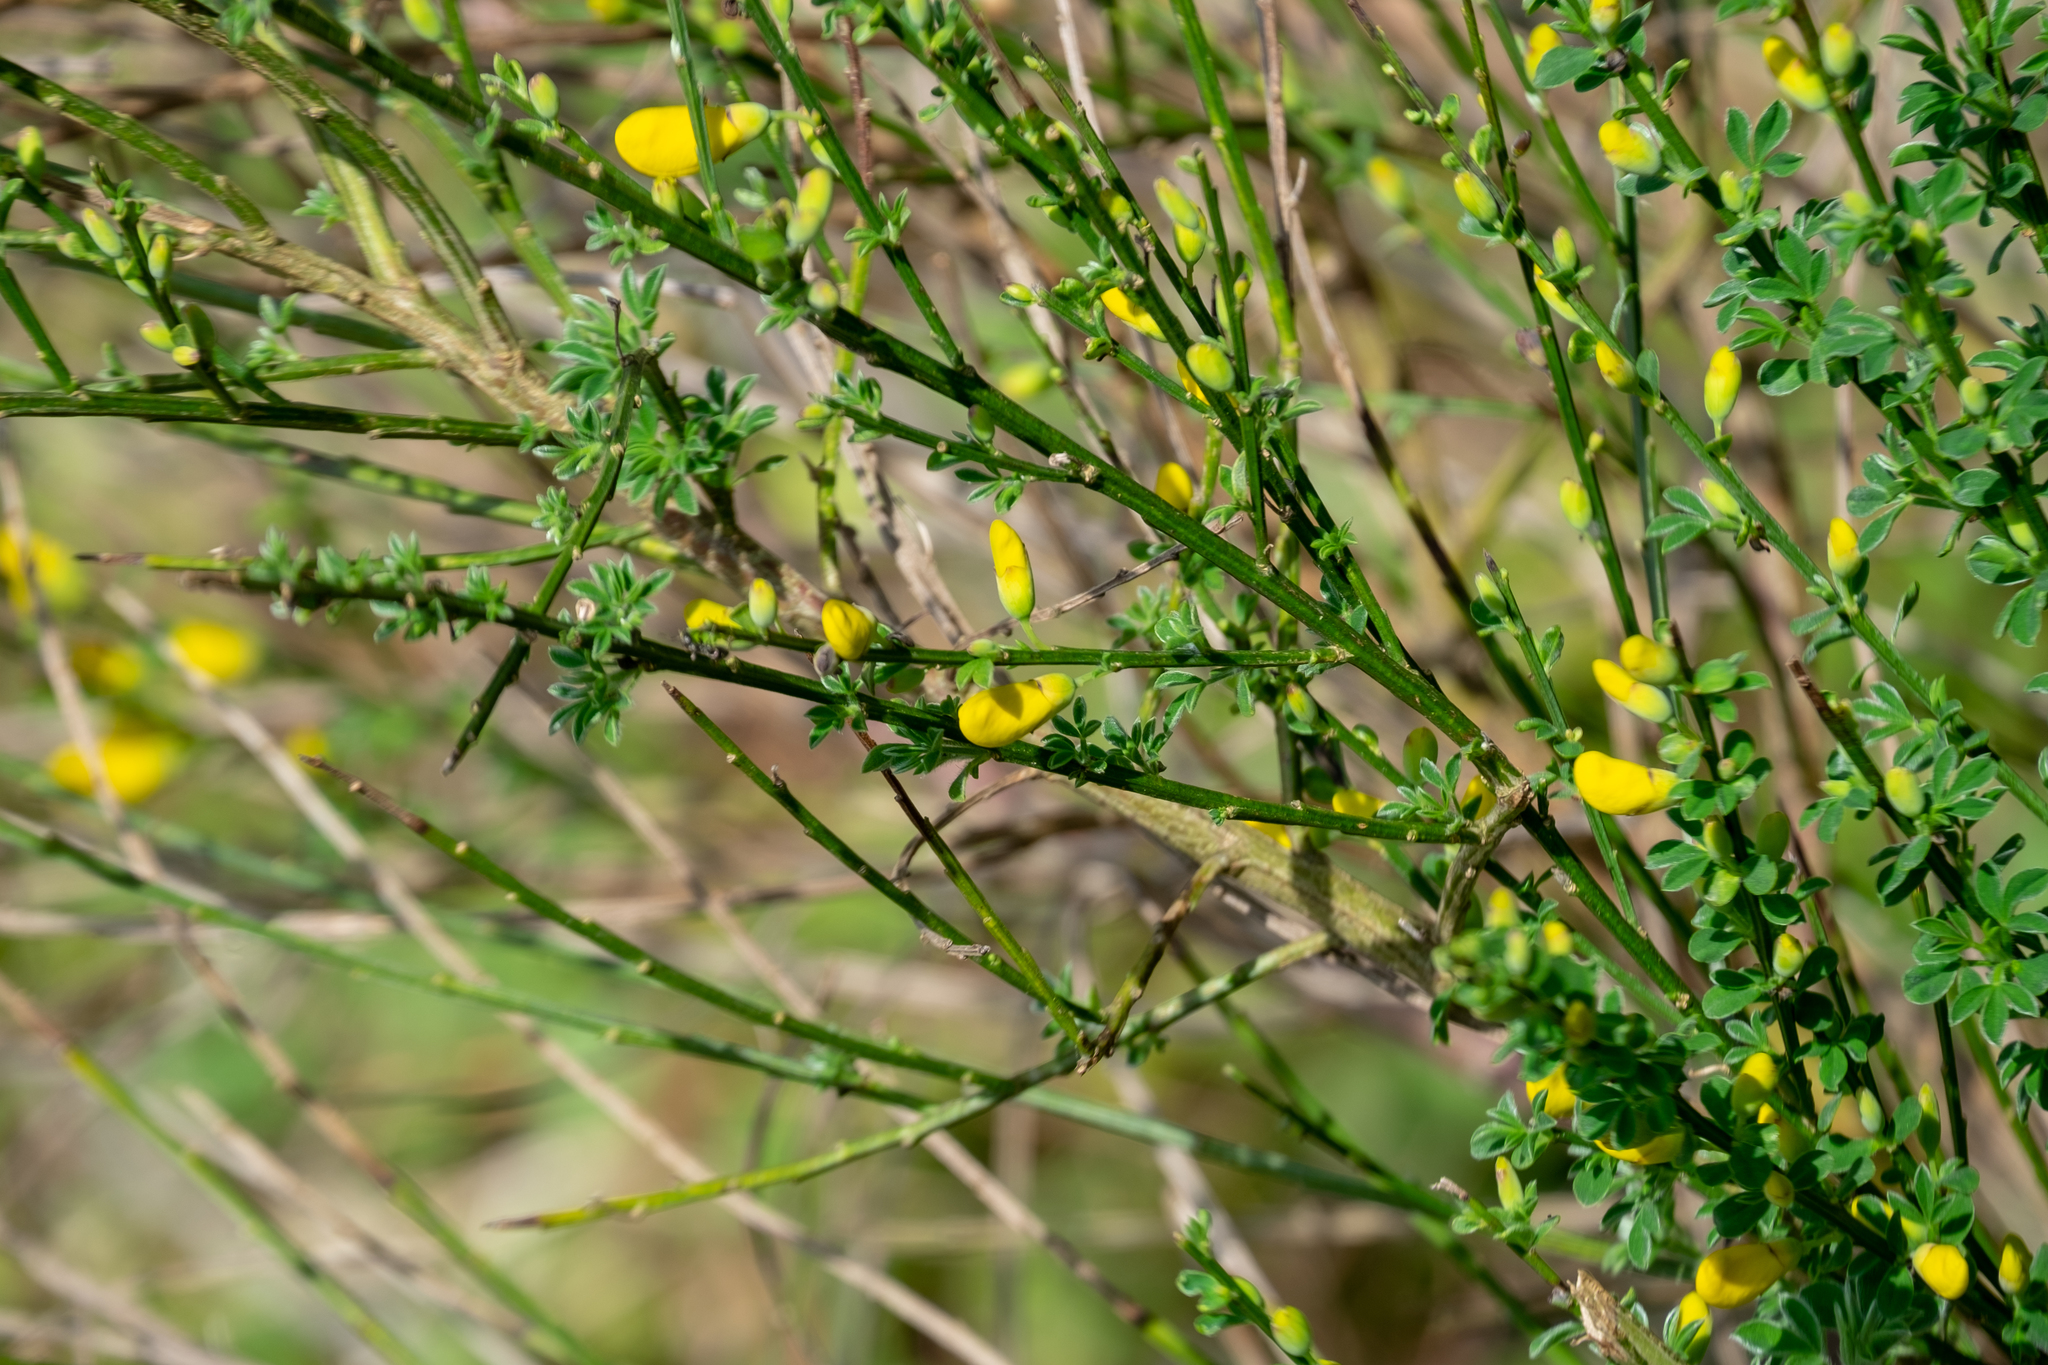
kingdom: Plantae
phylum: Tracheophyta
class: Magnoliopsida
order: Fabales
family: Fabaceae
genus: Cytisus
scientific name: Cytisus scoparius
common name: Scotch broom
